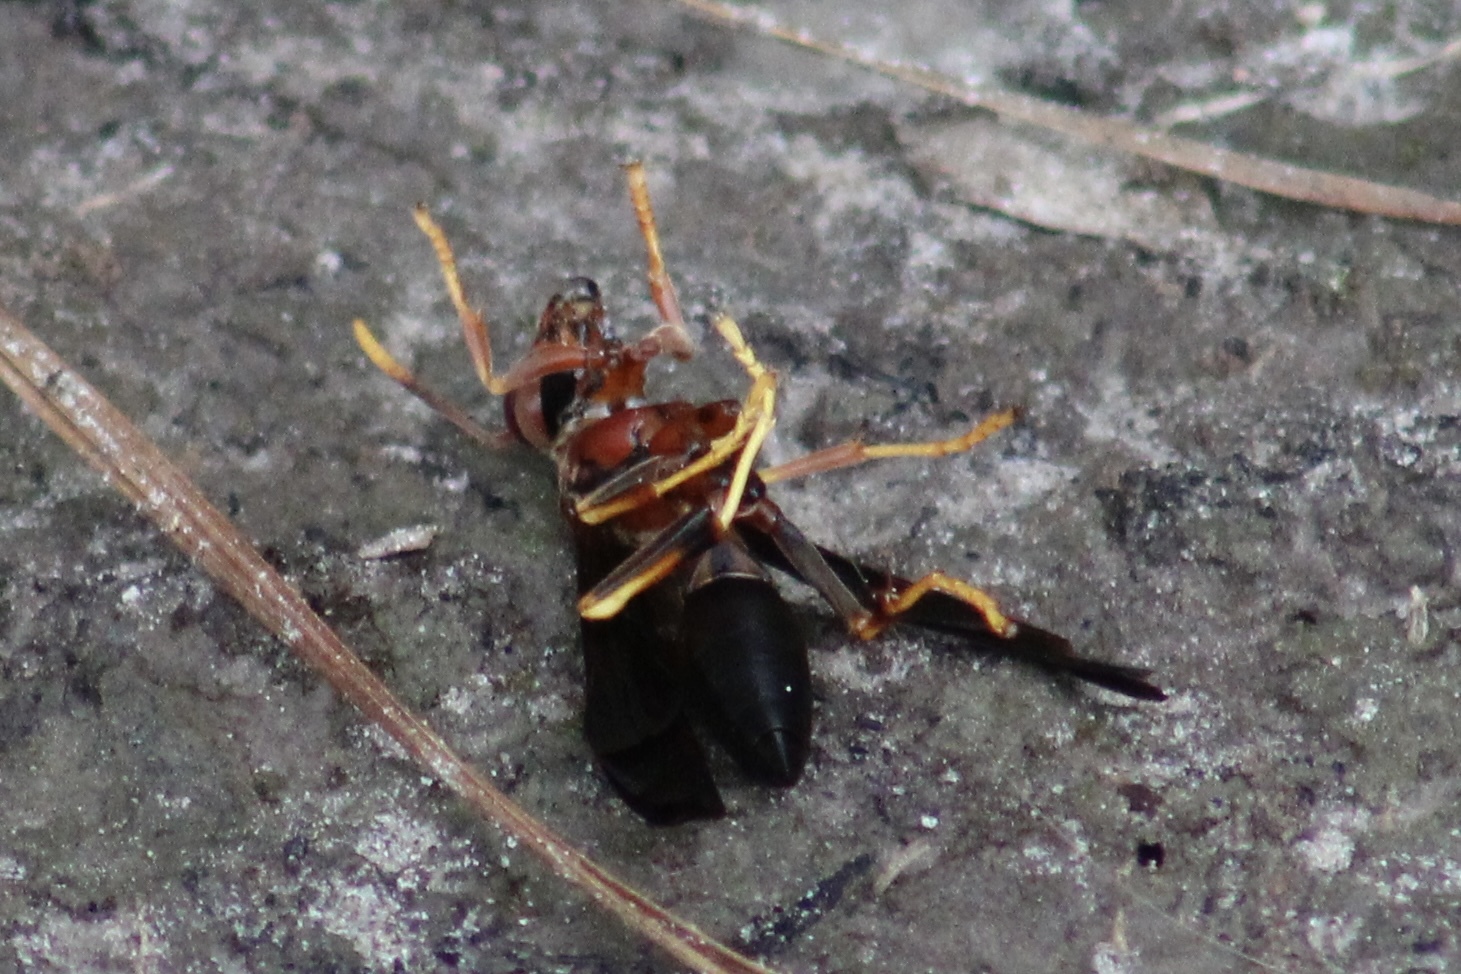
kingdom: Animalia
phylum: Arthropoda
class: Insecta
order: Hymenoptera
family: Eumenidae
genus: Polistes
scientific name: Polistes annularis
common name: Ringed paper wasp
